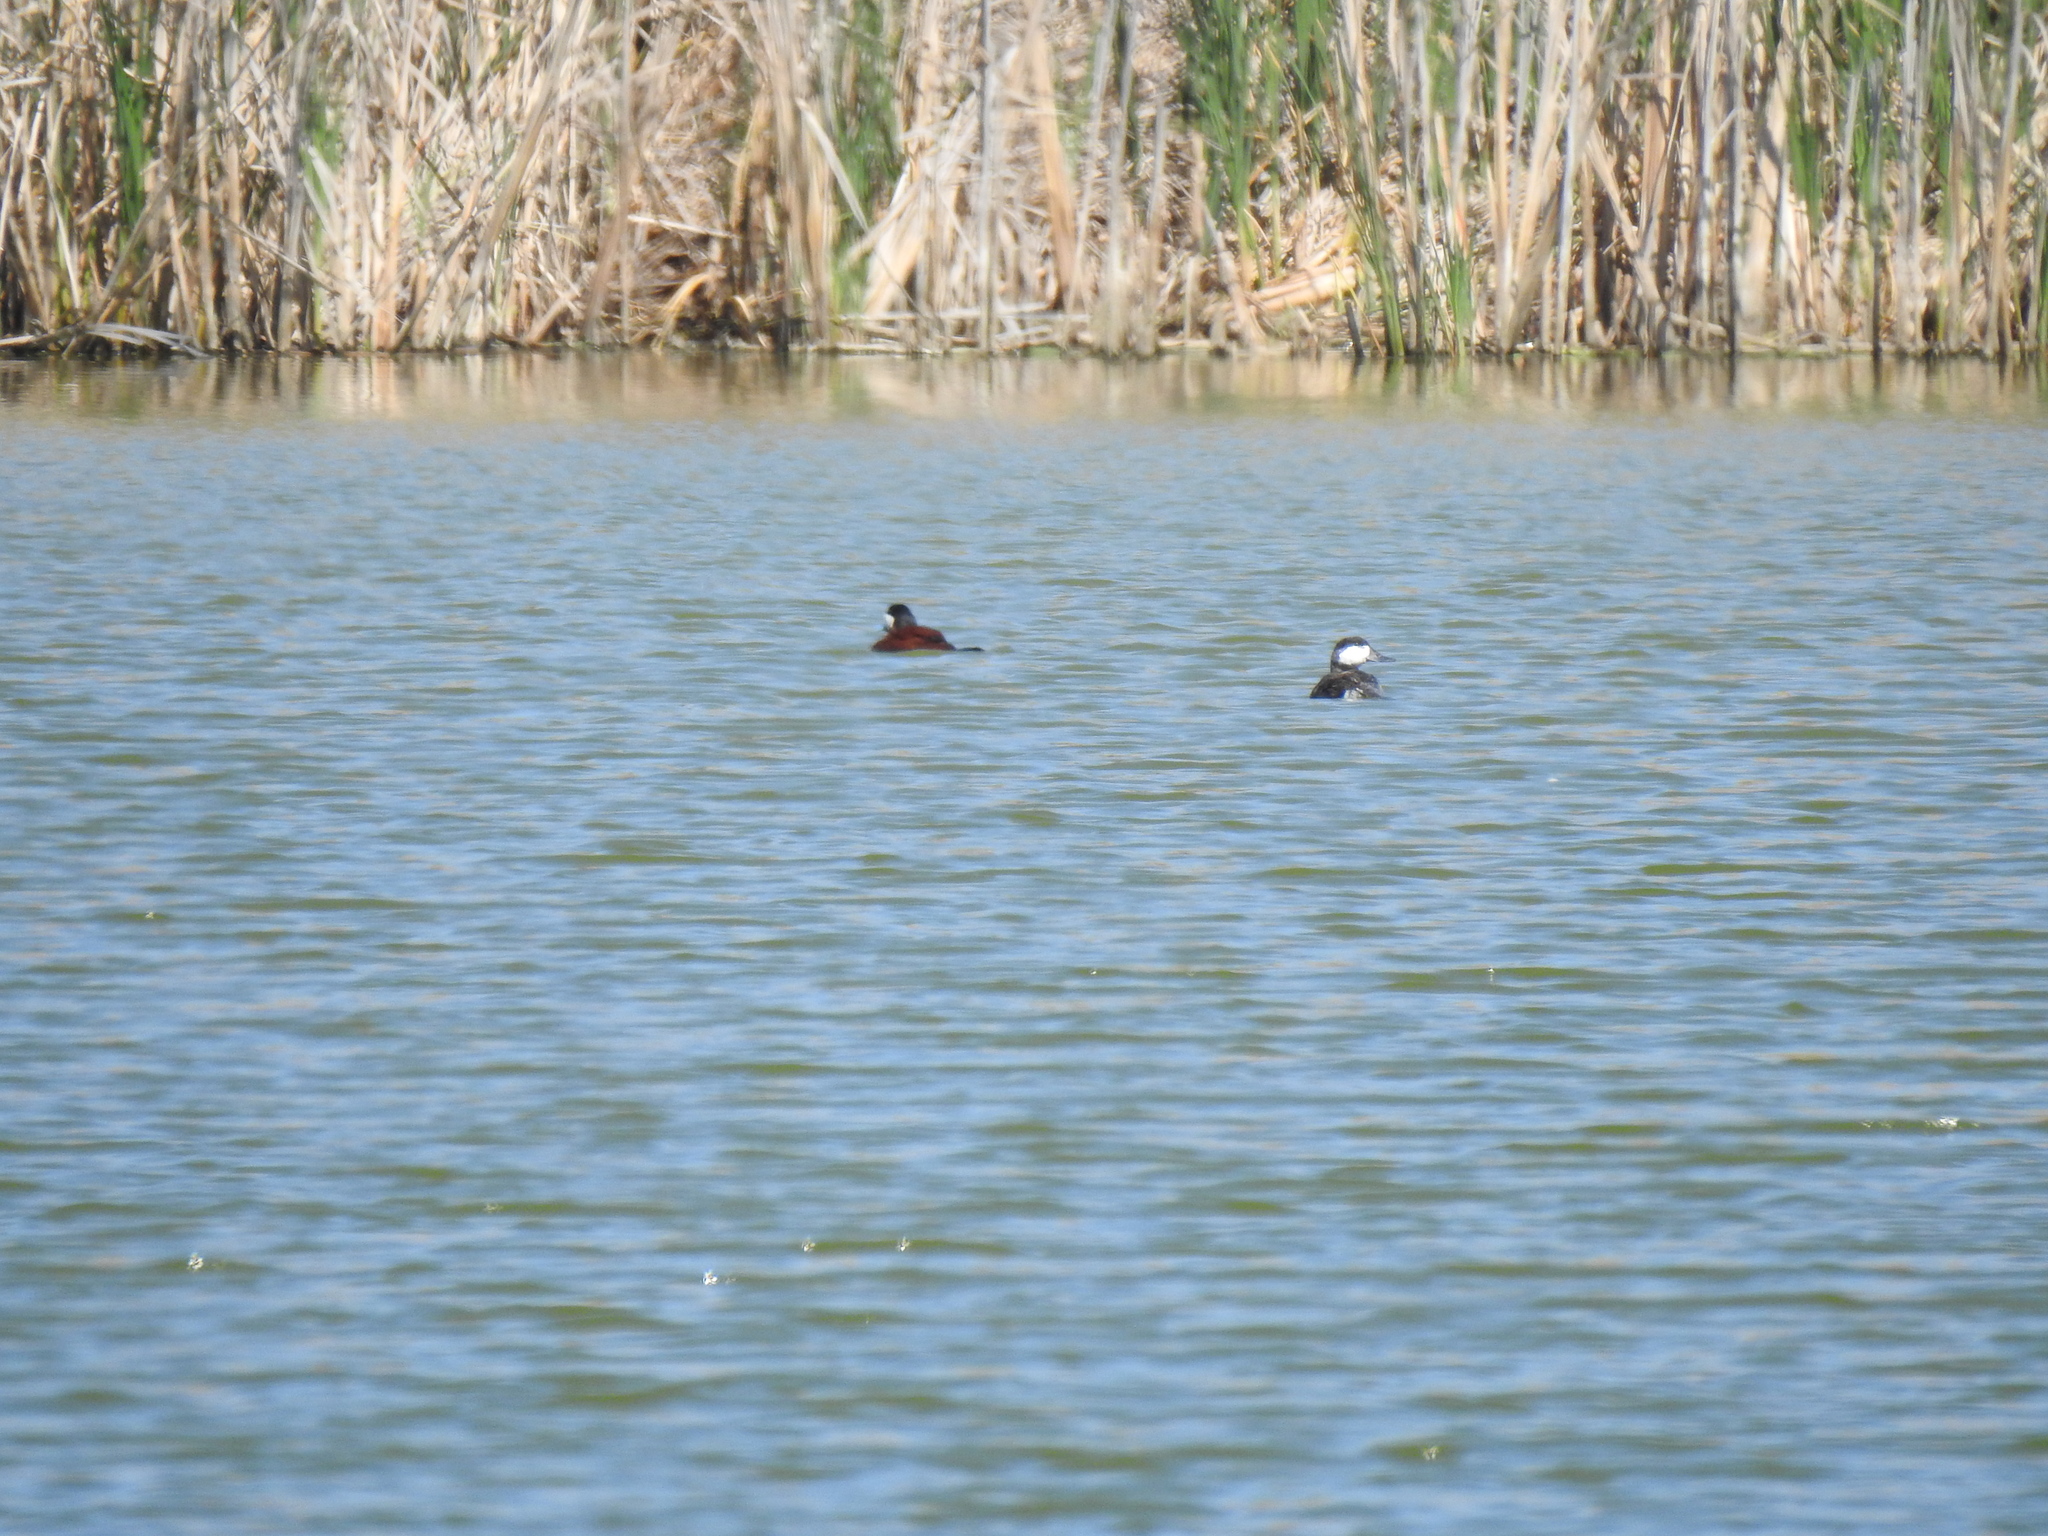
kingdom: Animalia
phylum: Chordata
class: Aves
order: Anseriformes
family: Anatidae
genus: Oxyura
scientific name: Oxyura jamaicensis
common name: Ruddy duck
